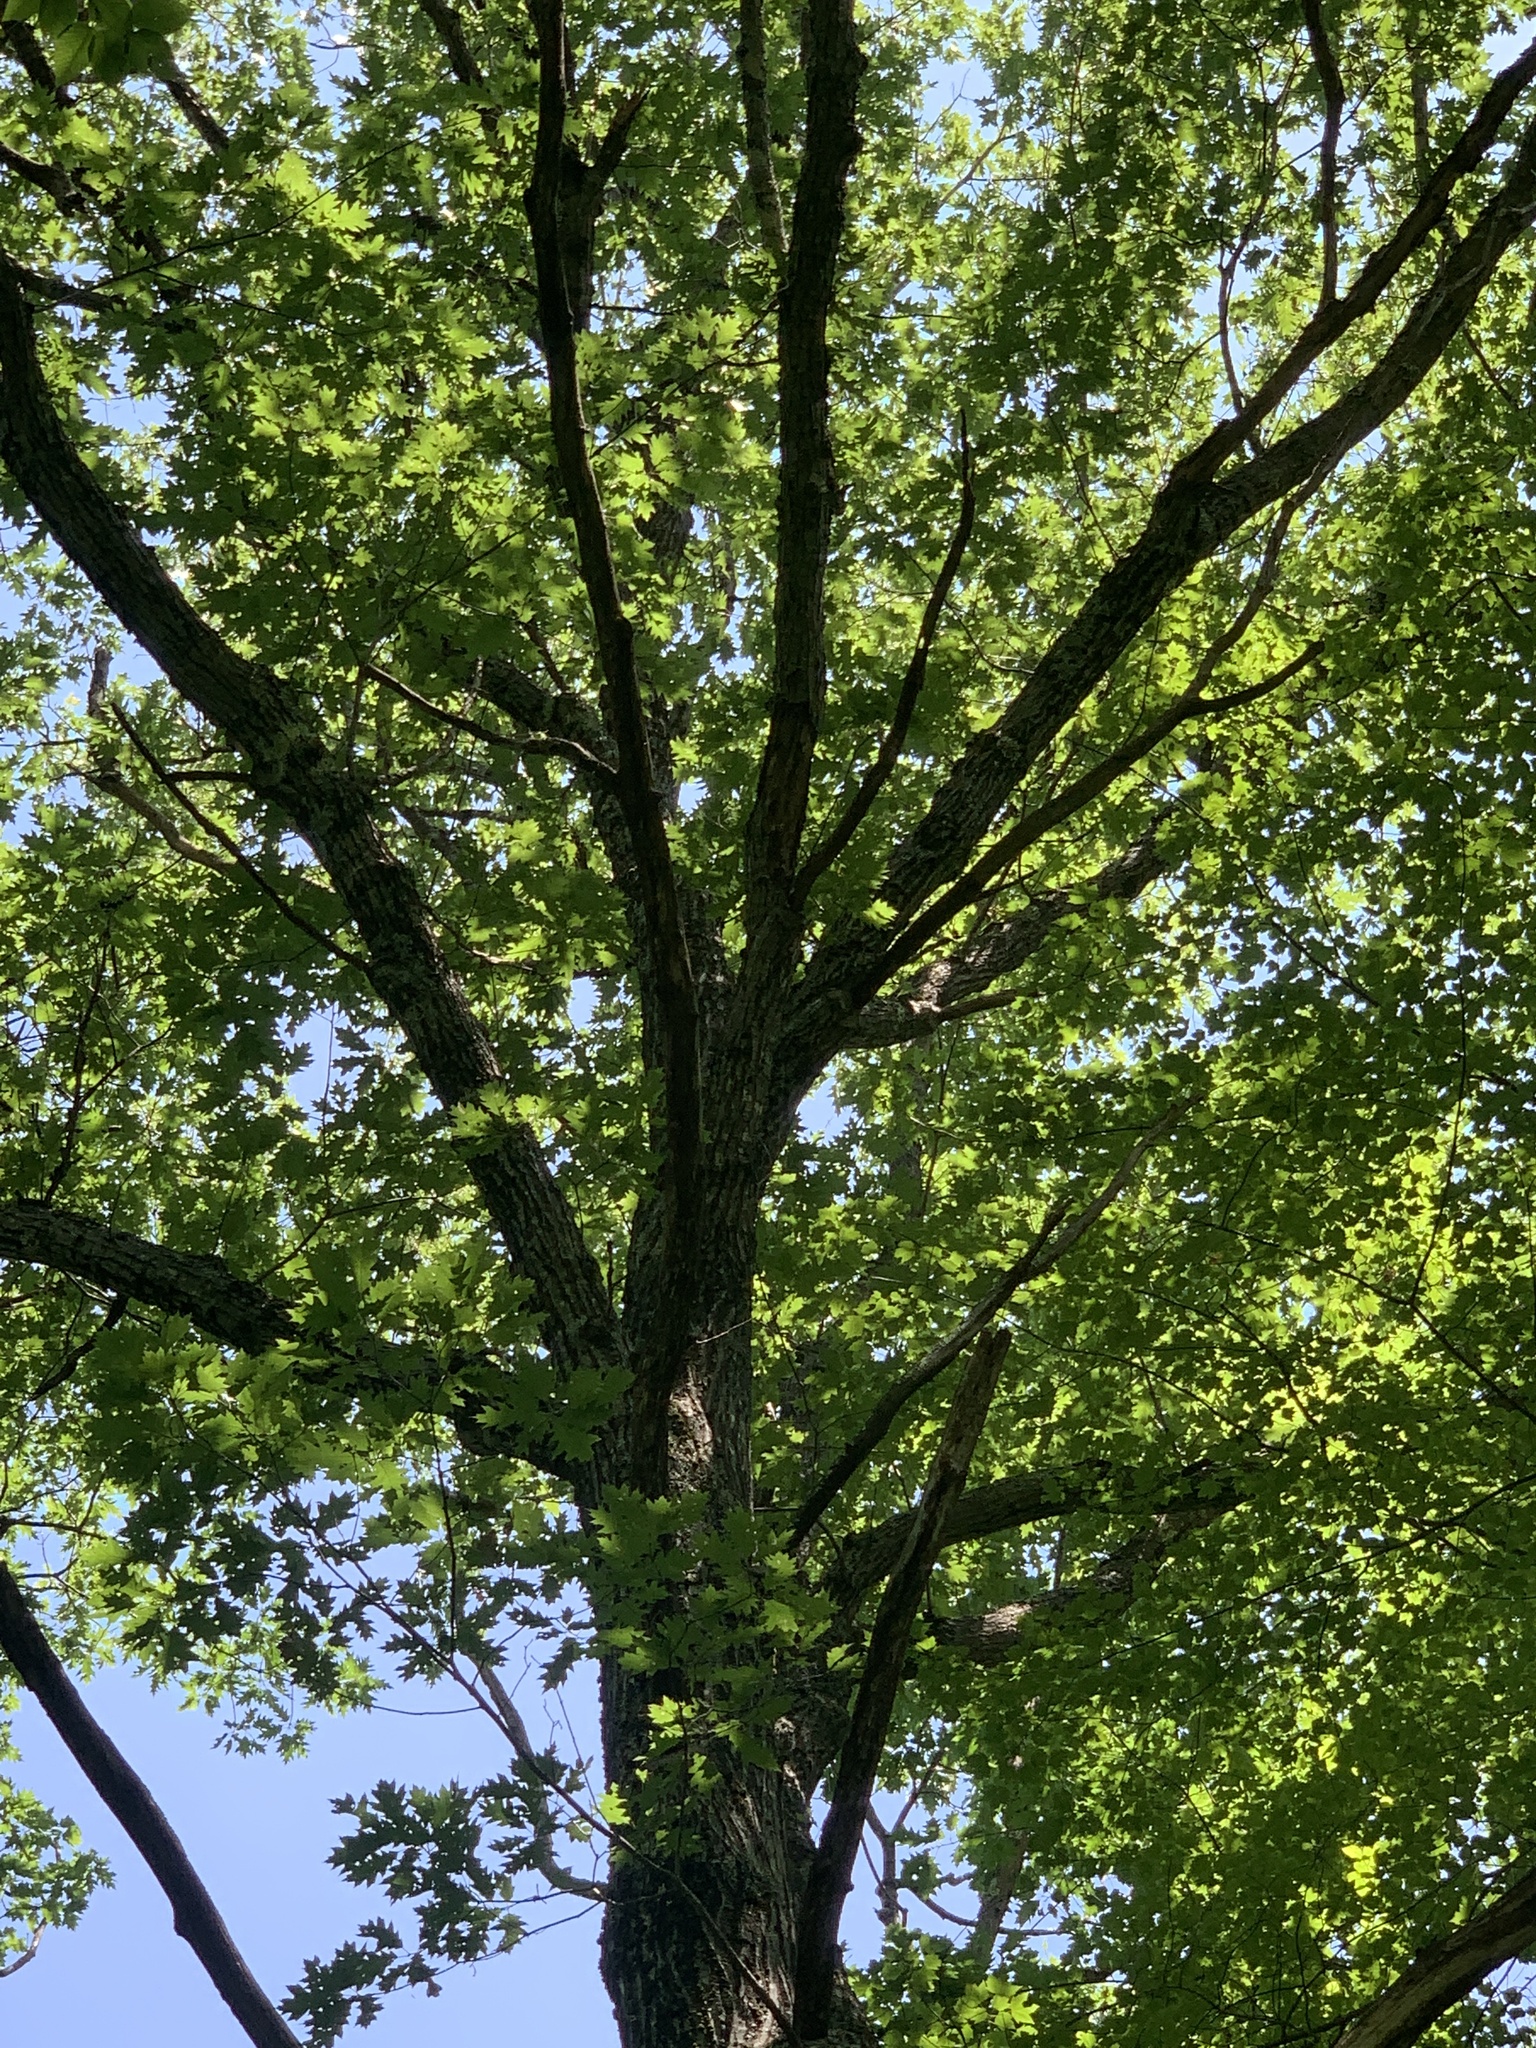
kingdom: Plantae
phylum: Tracheophyta
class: Magnoliopsida
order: Fagales
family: Fagaceae
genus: Quercus
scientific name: Quercus rubra
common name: Red oak
